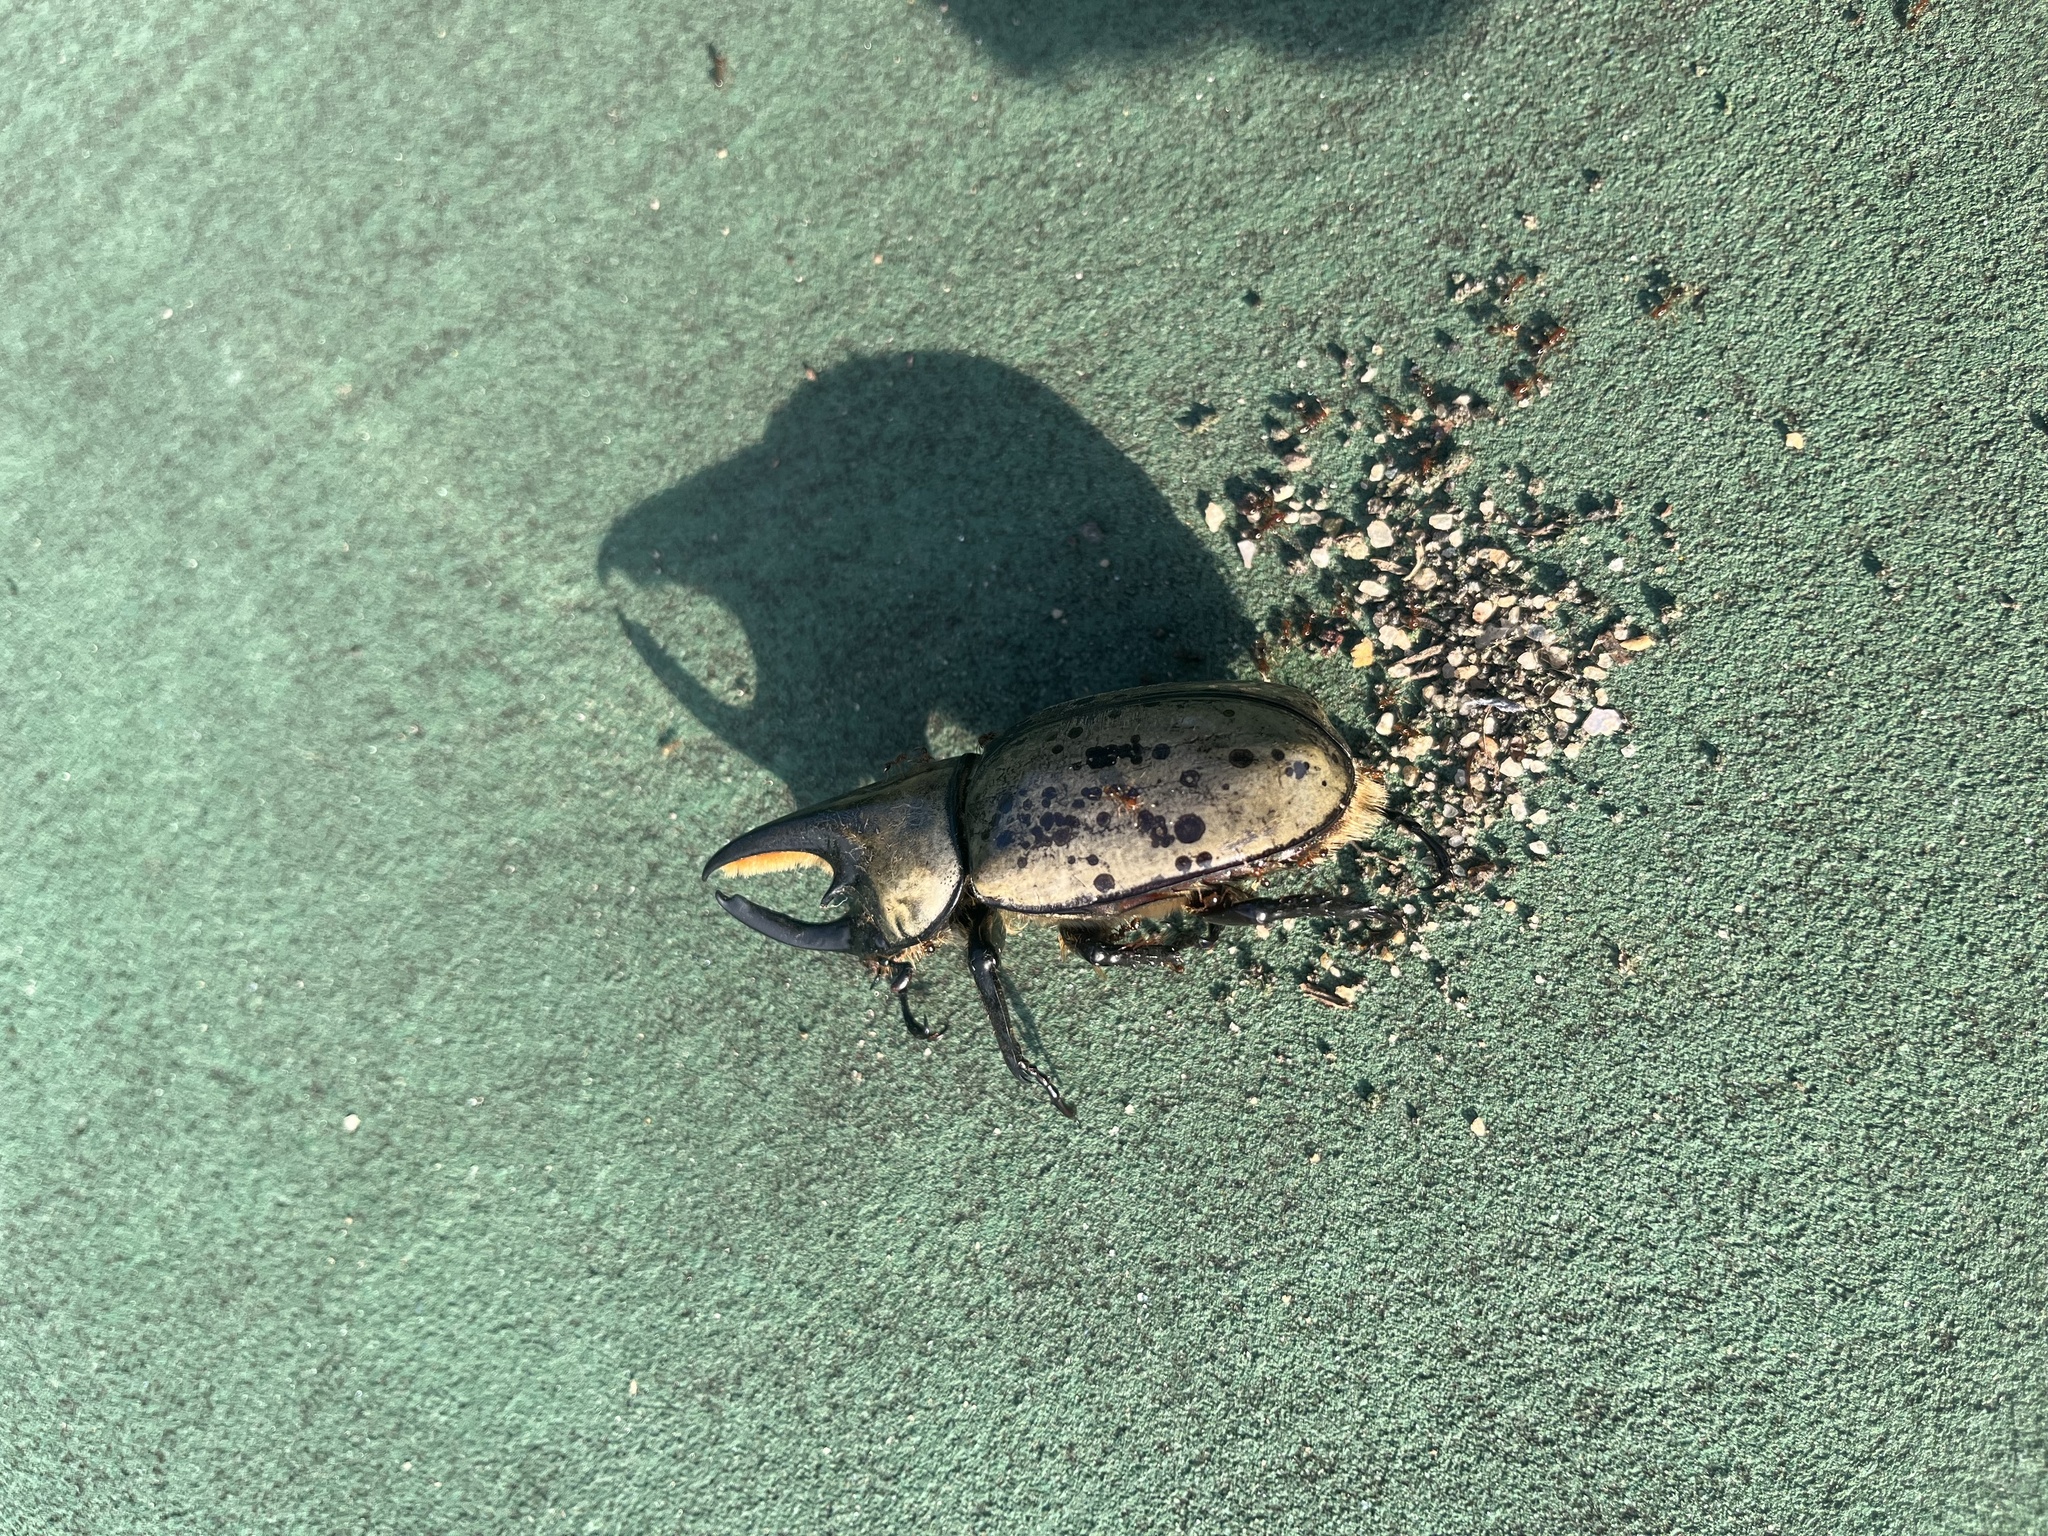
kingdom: Animalia
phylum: Arthropoda
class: Insecta
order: Coleoptera
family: Scarabaeidae
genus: Dynastes
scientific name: Dynastes tityus
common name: Eastern hercules beetle
